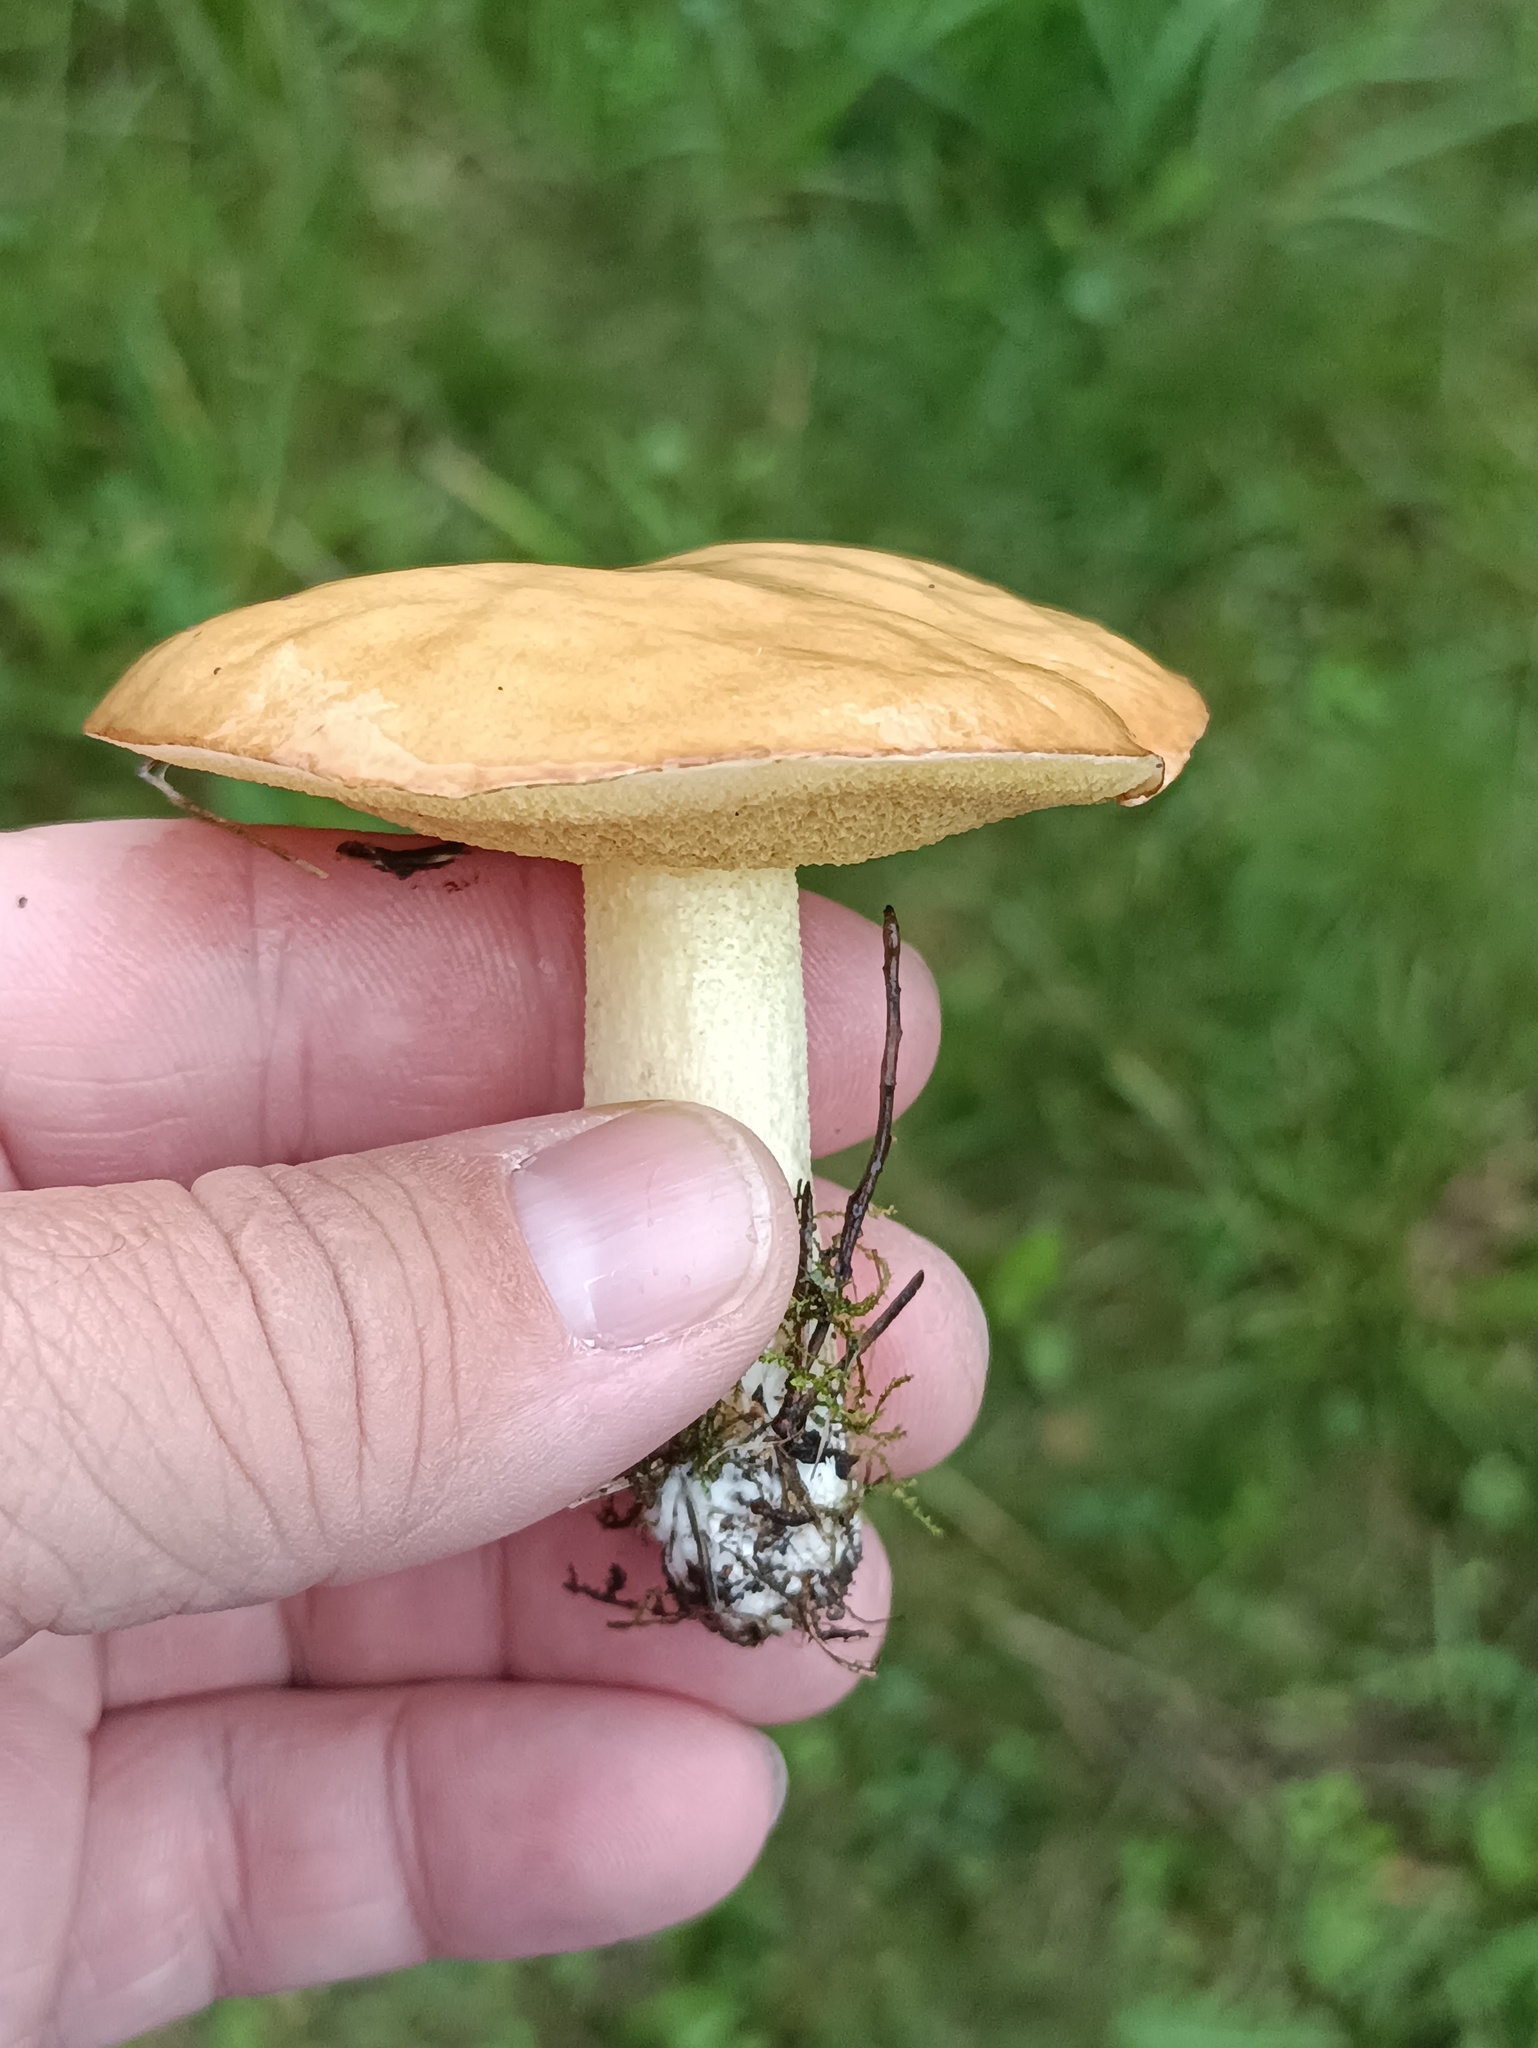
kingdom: Fungi
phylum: Basidiomycota
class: Agaricomycetes
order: Boletales
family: Suillaceae
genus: Suillus
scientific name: Suillus granulatus
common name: Weeping bolete
